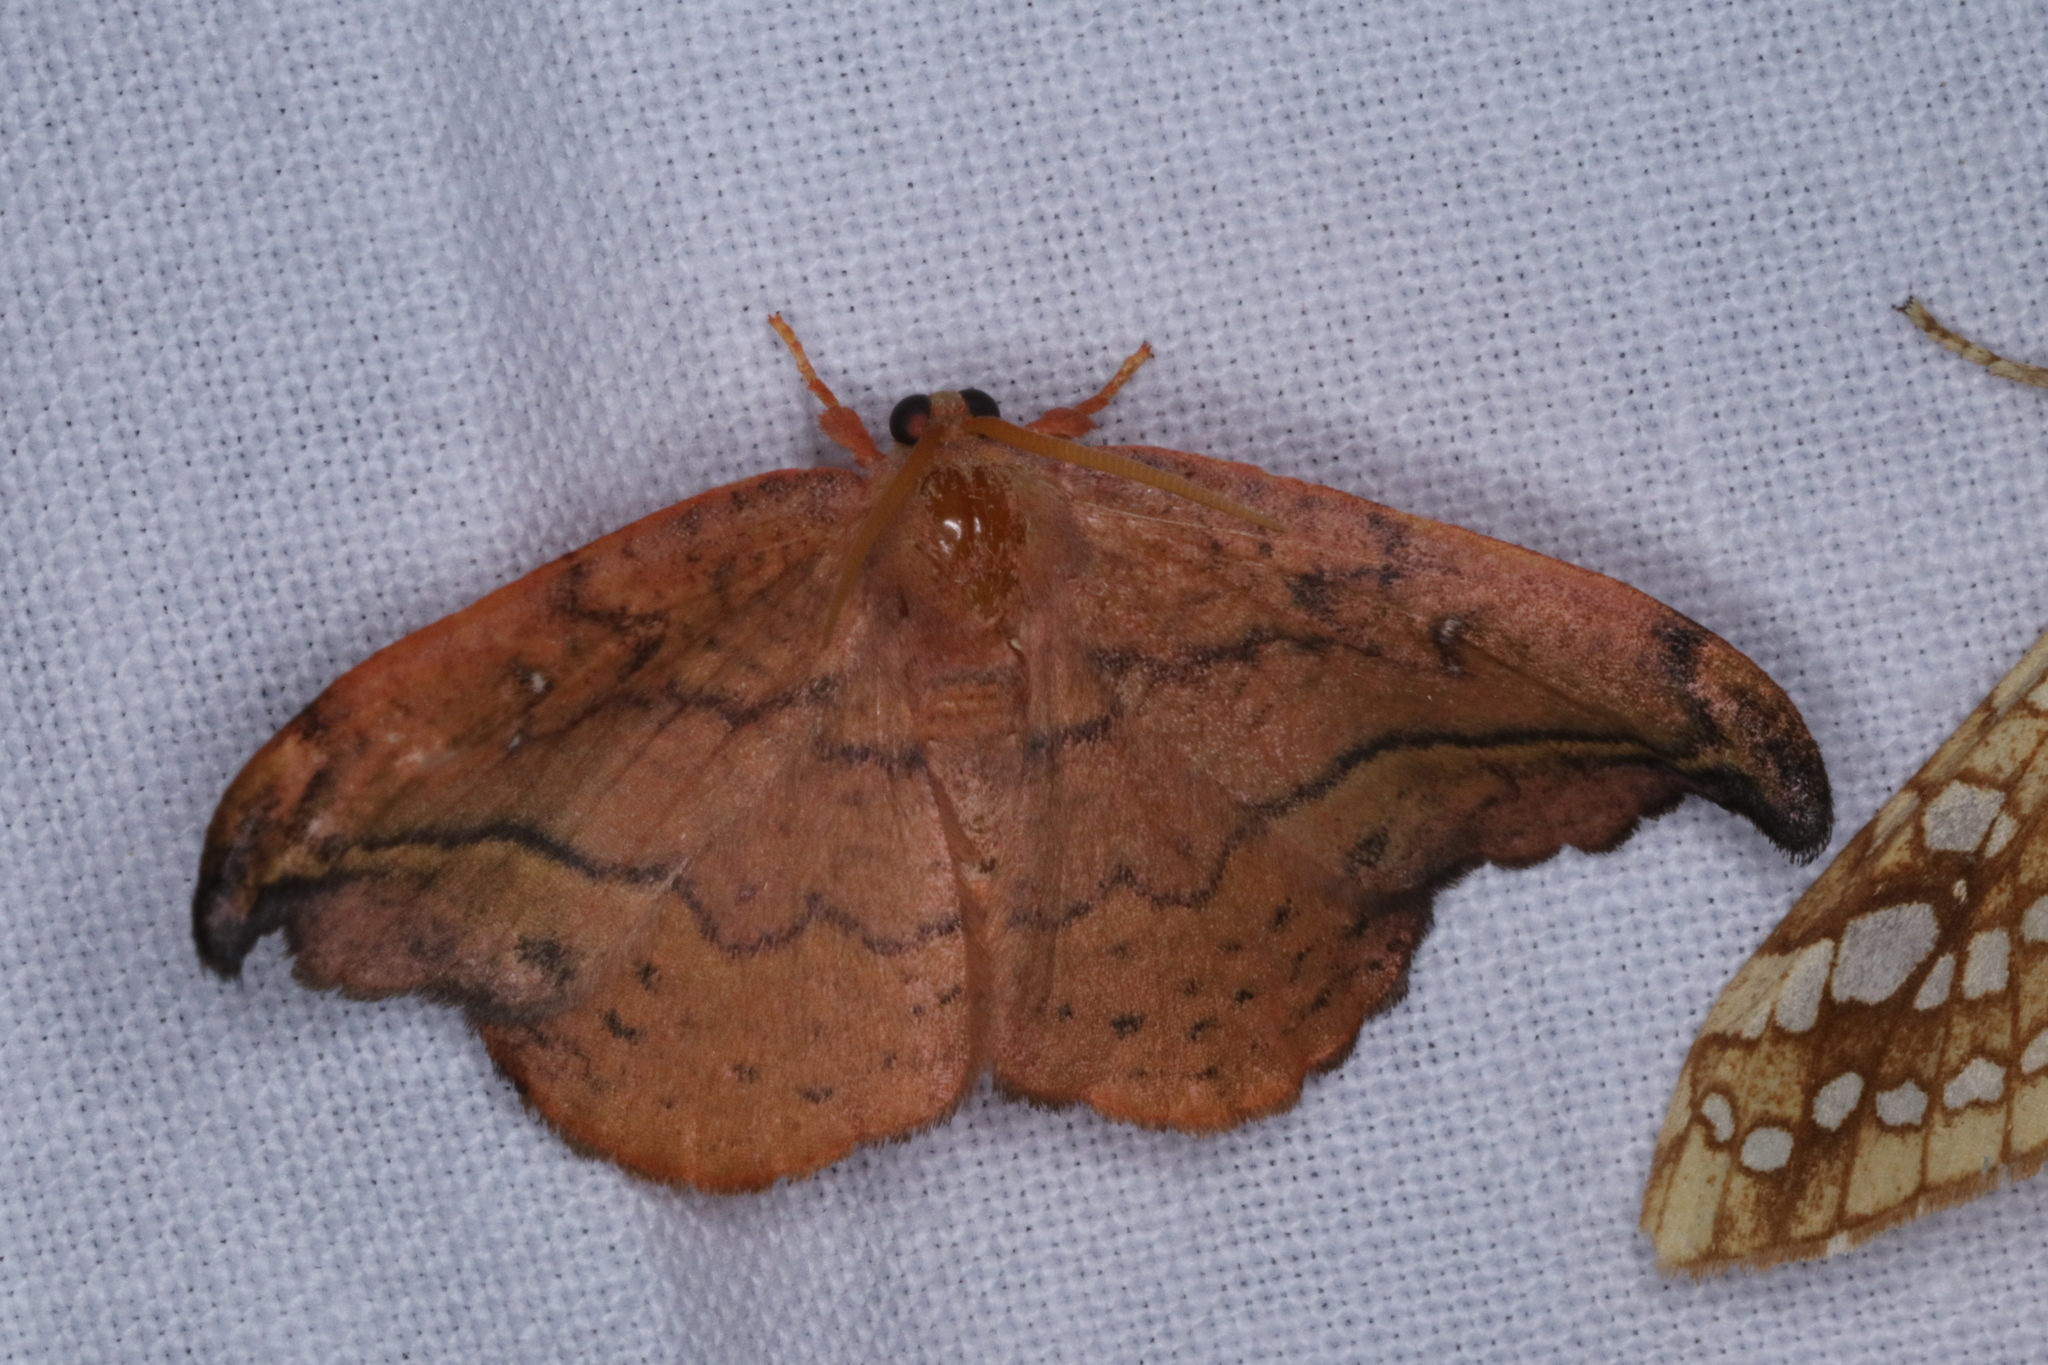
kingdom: Animalia
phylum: Arthropoda
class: Insecta
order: Lepidoptera
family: Drepanidae
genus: Oreta
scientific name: Oreta rosea
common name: Rose hooktip
